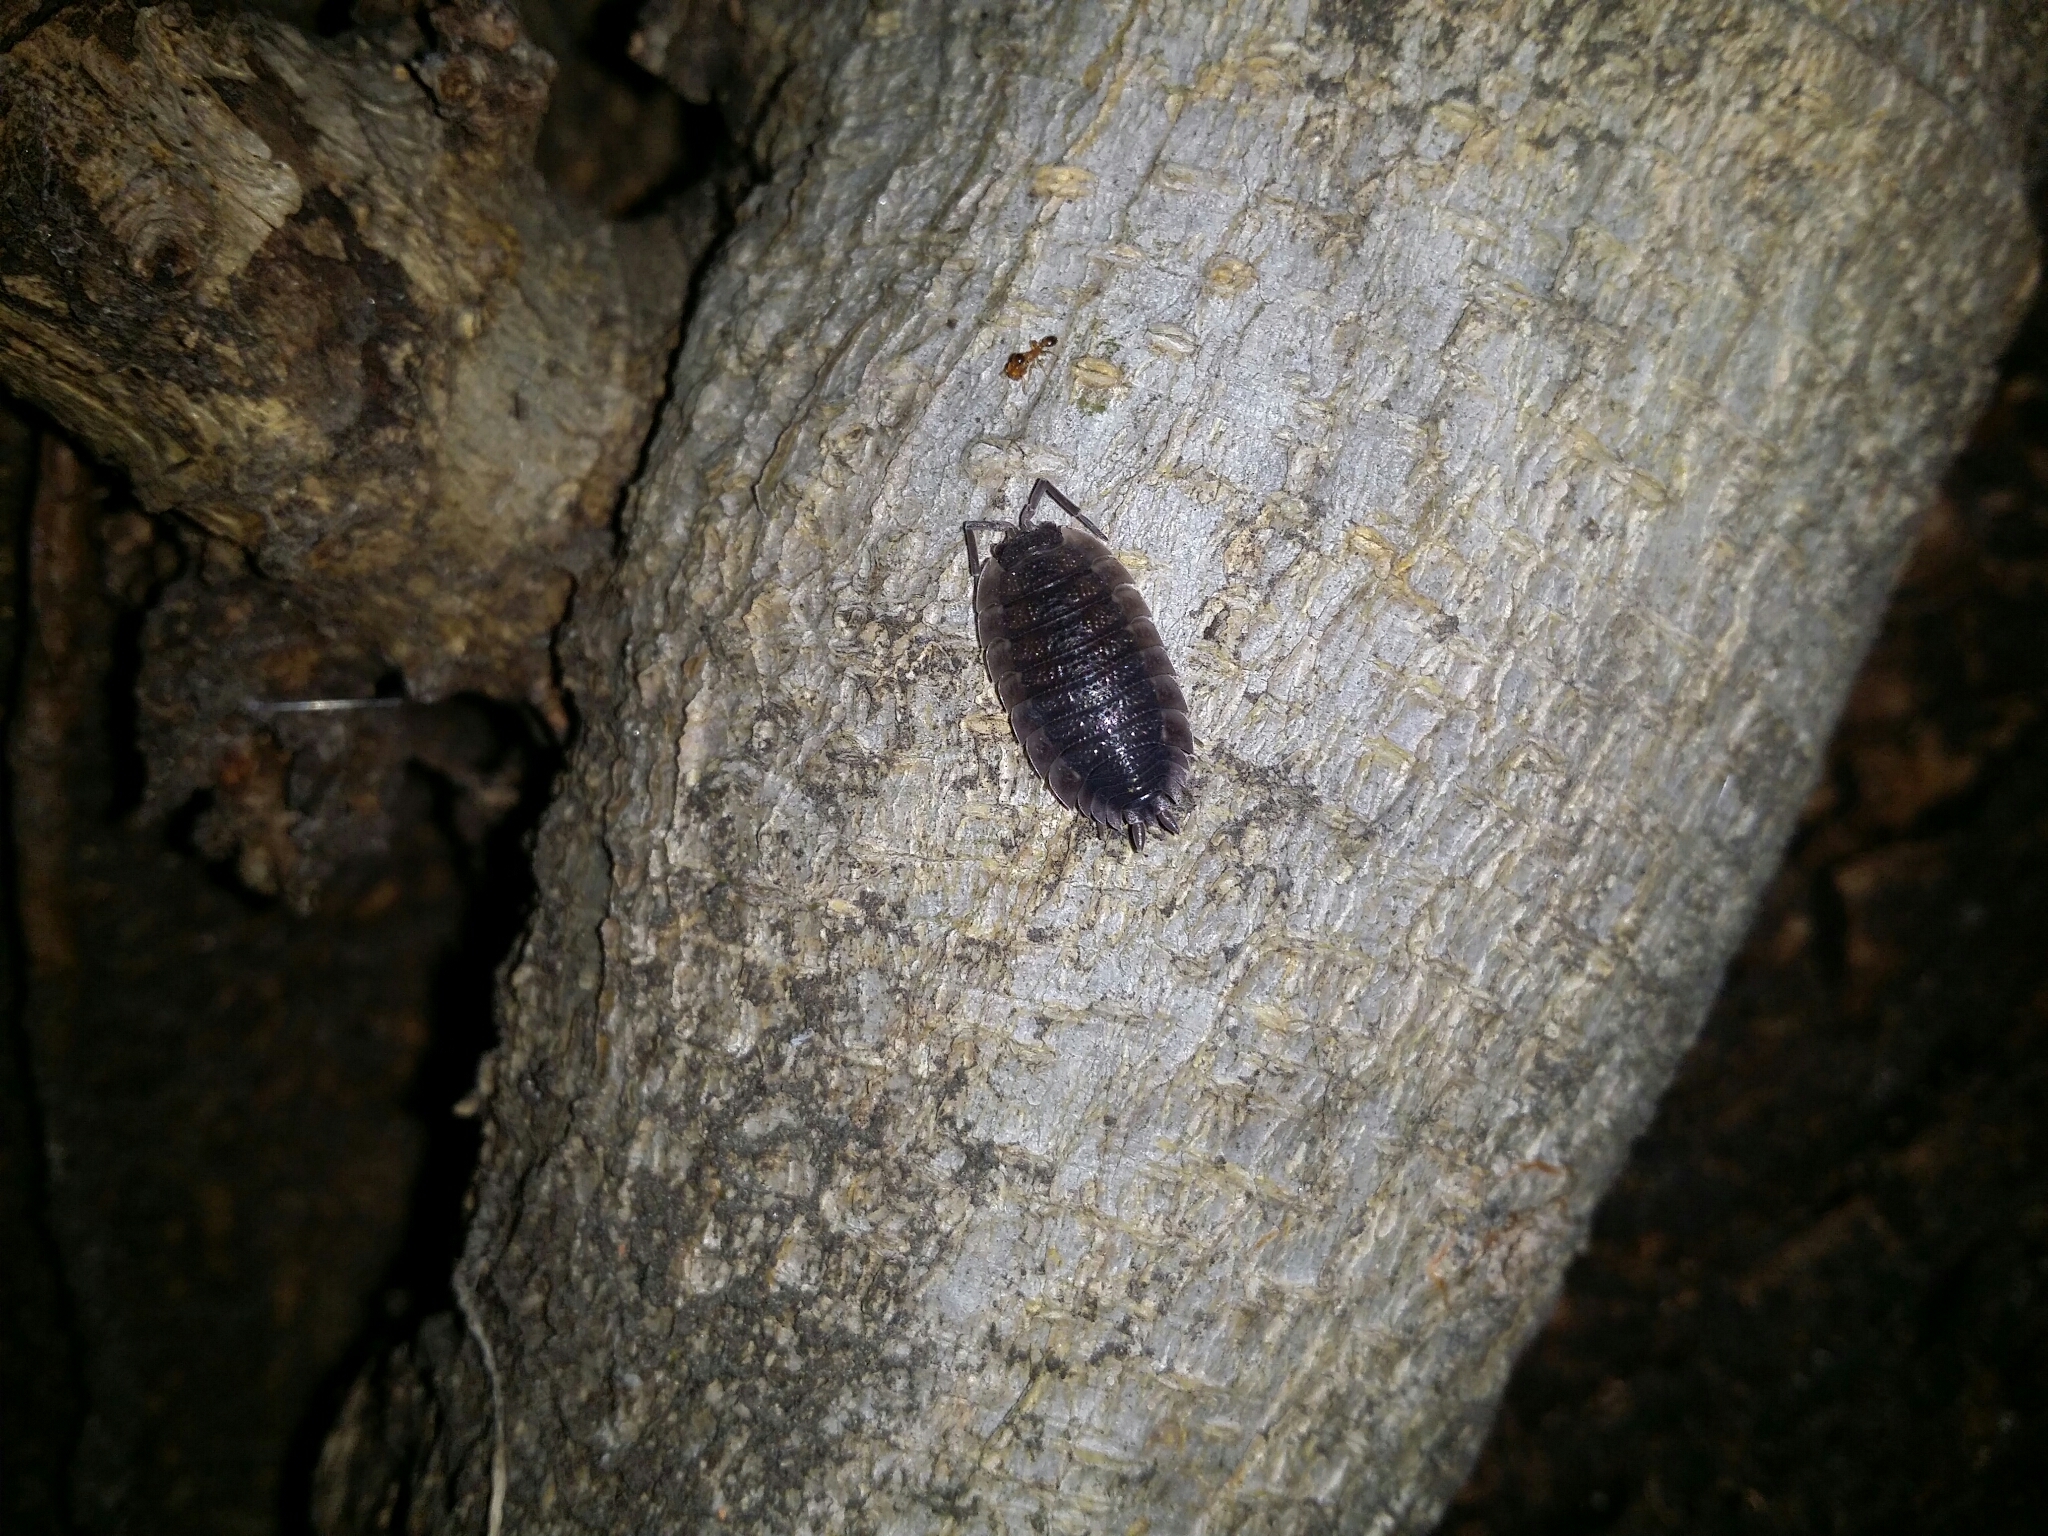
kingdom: Animalia
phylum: Arthropoda
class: Malacostraca
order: Isopoda
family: Porcellionidae
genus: Porcellio
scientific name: Porcellio scaber
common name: Common rough woodlouse
